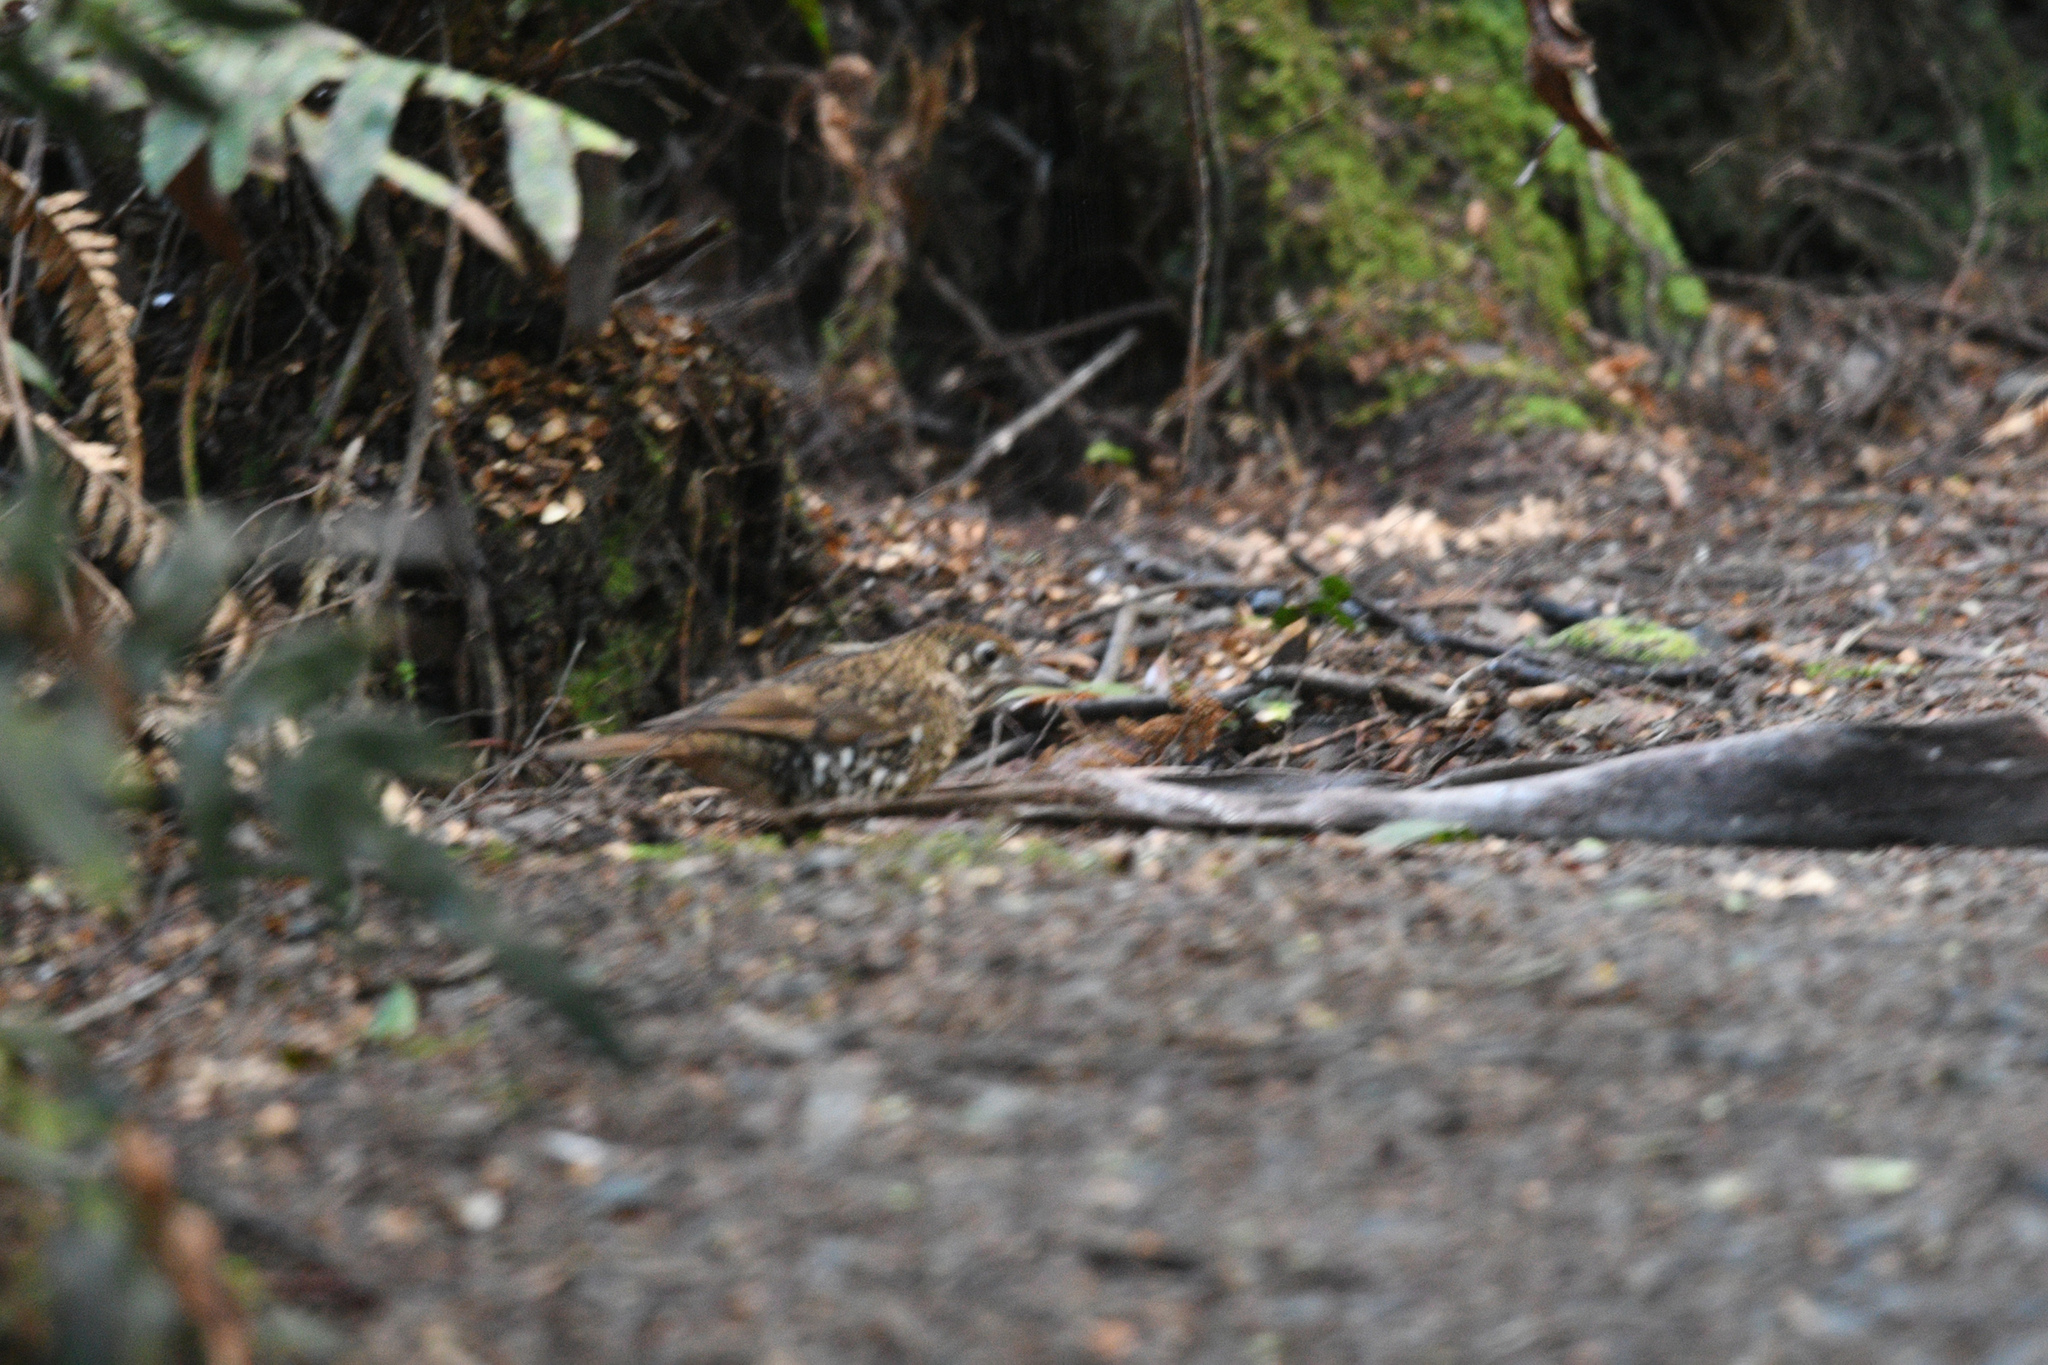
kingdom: Animalia
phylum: Chordata
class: Aves
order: Passeriformes
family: Turdidae
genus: Zoothera
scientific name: Zoothera lunulata
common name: Bassian thrush
